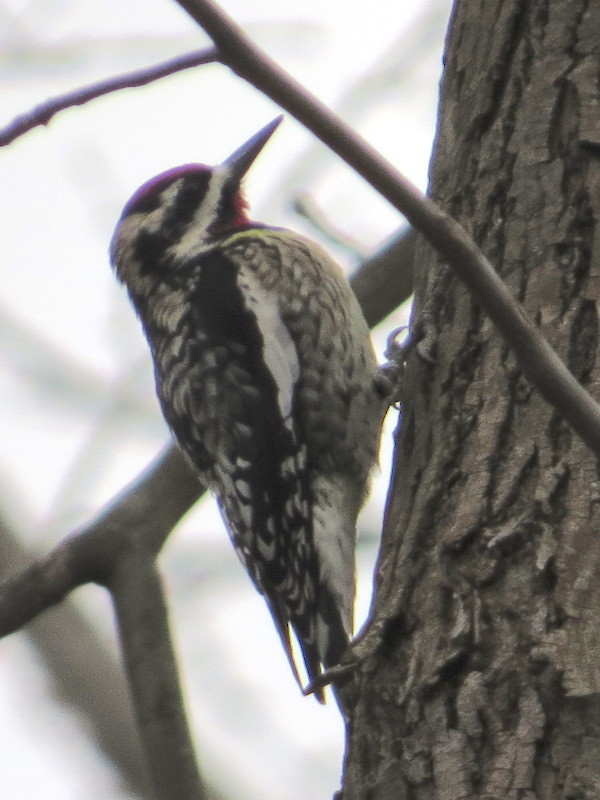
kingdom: Animalia
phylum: Chordata
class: Aves
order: Piciformes
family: Picidae
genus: Sphyrapicus
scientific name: Sphyrapicus varius
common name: Yellow-bellied sapsucker
